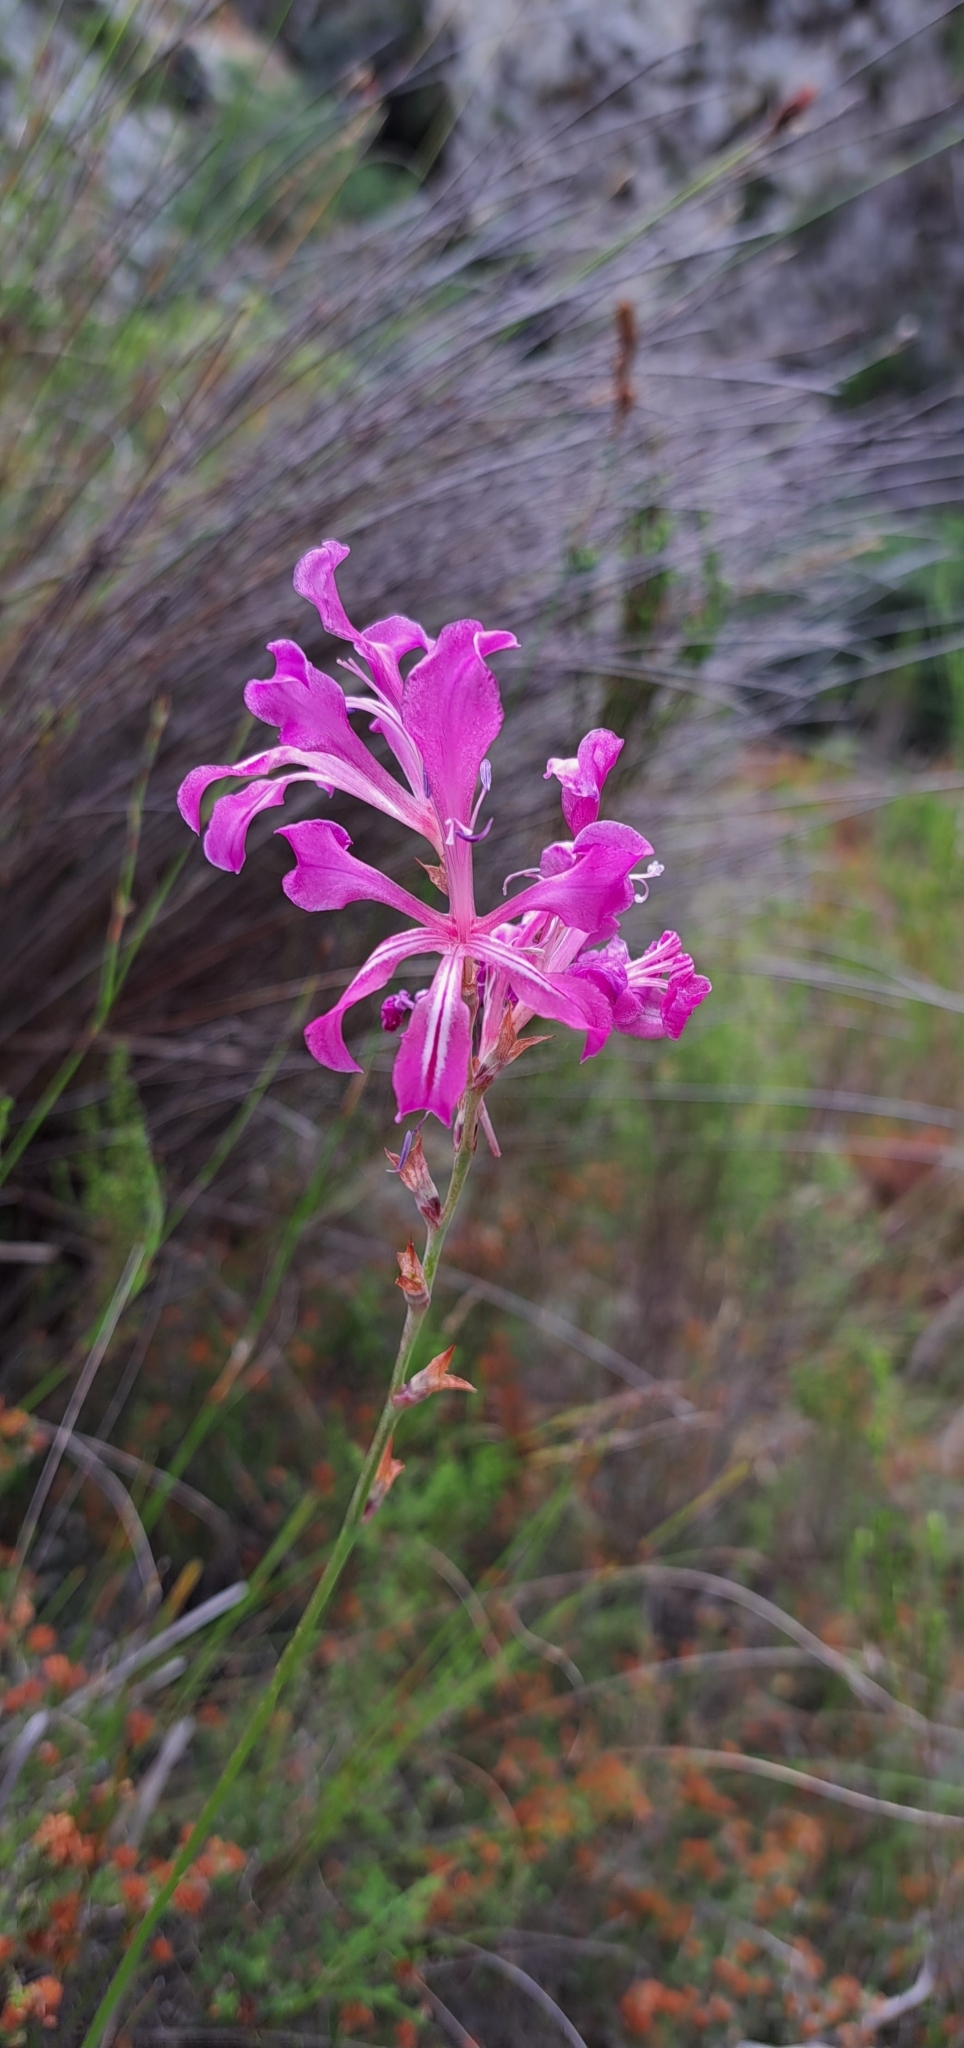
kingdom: Plantae
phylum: Tracheophyta
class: Liliopsida
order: Asparagales
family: Iridaceae
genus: Tritoniopsis
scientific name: Tritoniopsis lata
